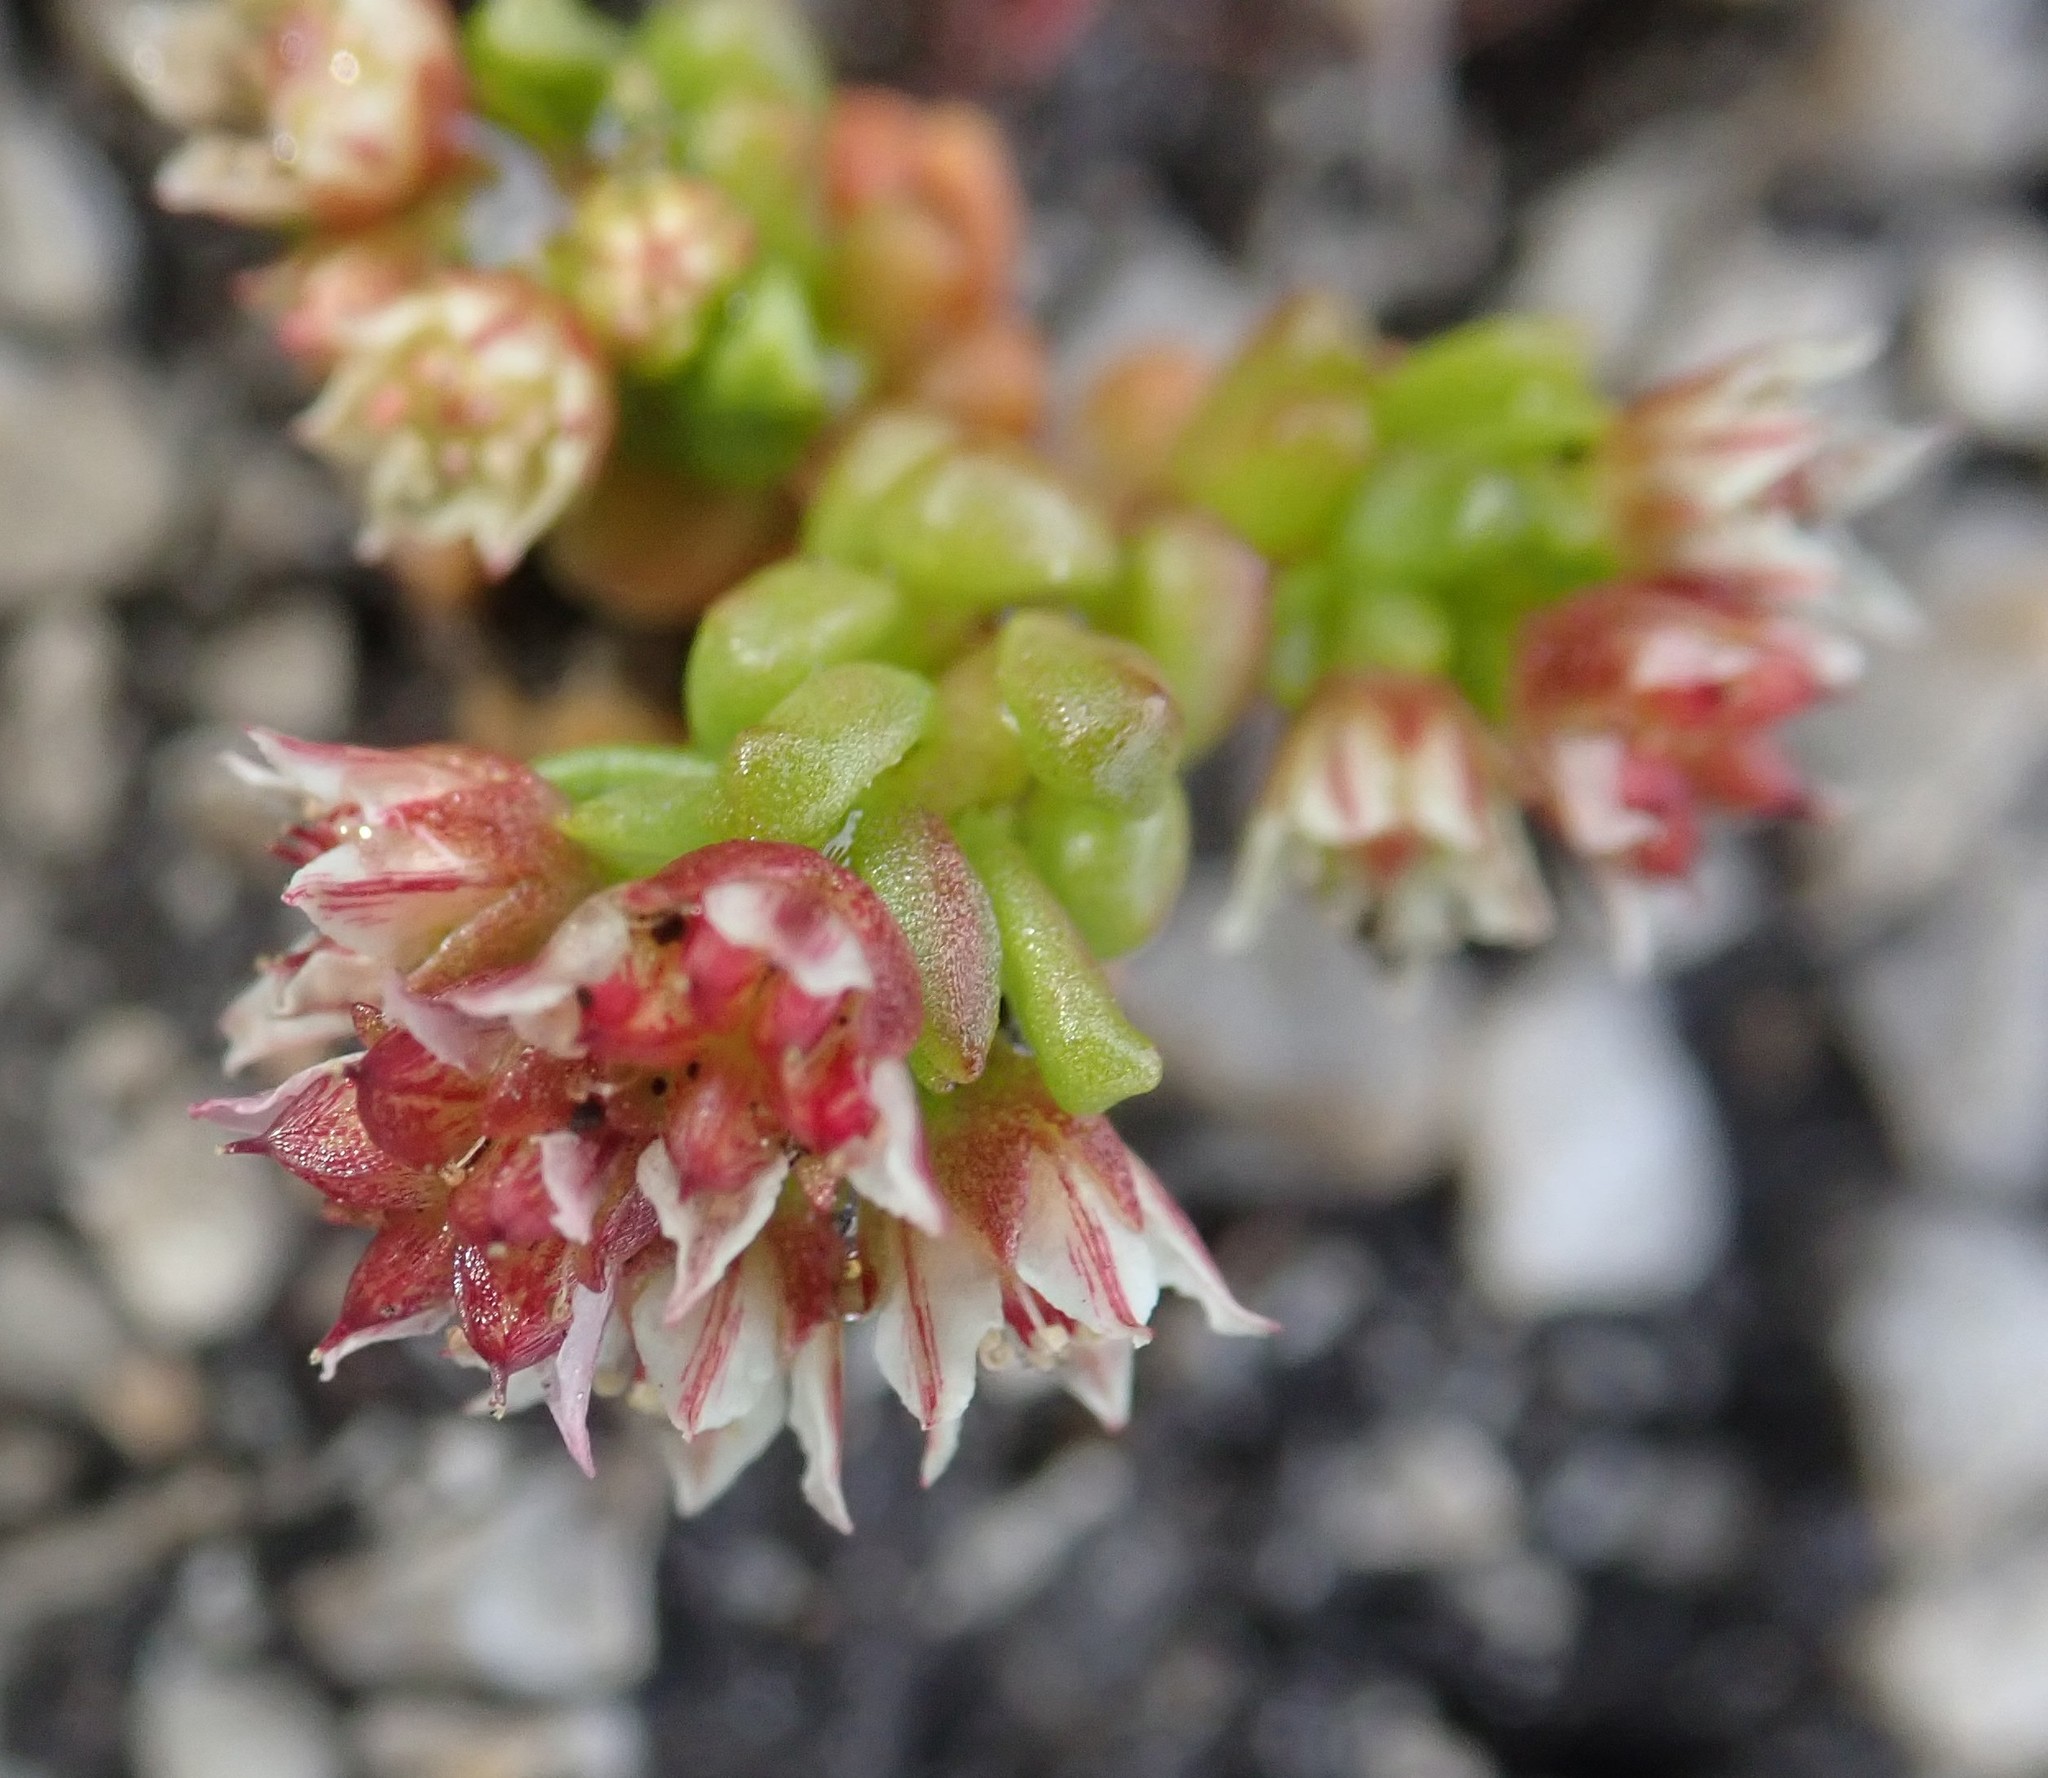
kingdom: Plantae
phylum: Tracheophyta
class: Magnoliopsida
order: Saxifragales
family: Crassulaceae
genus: Sedum
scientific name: Sedum atratum
